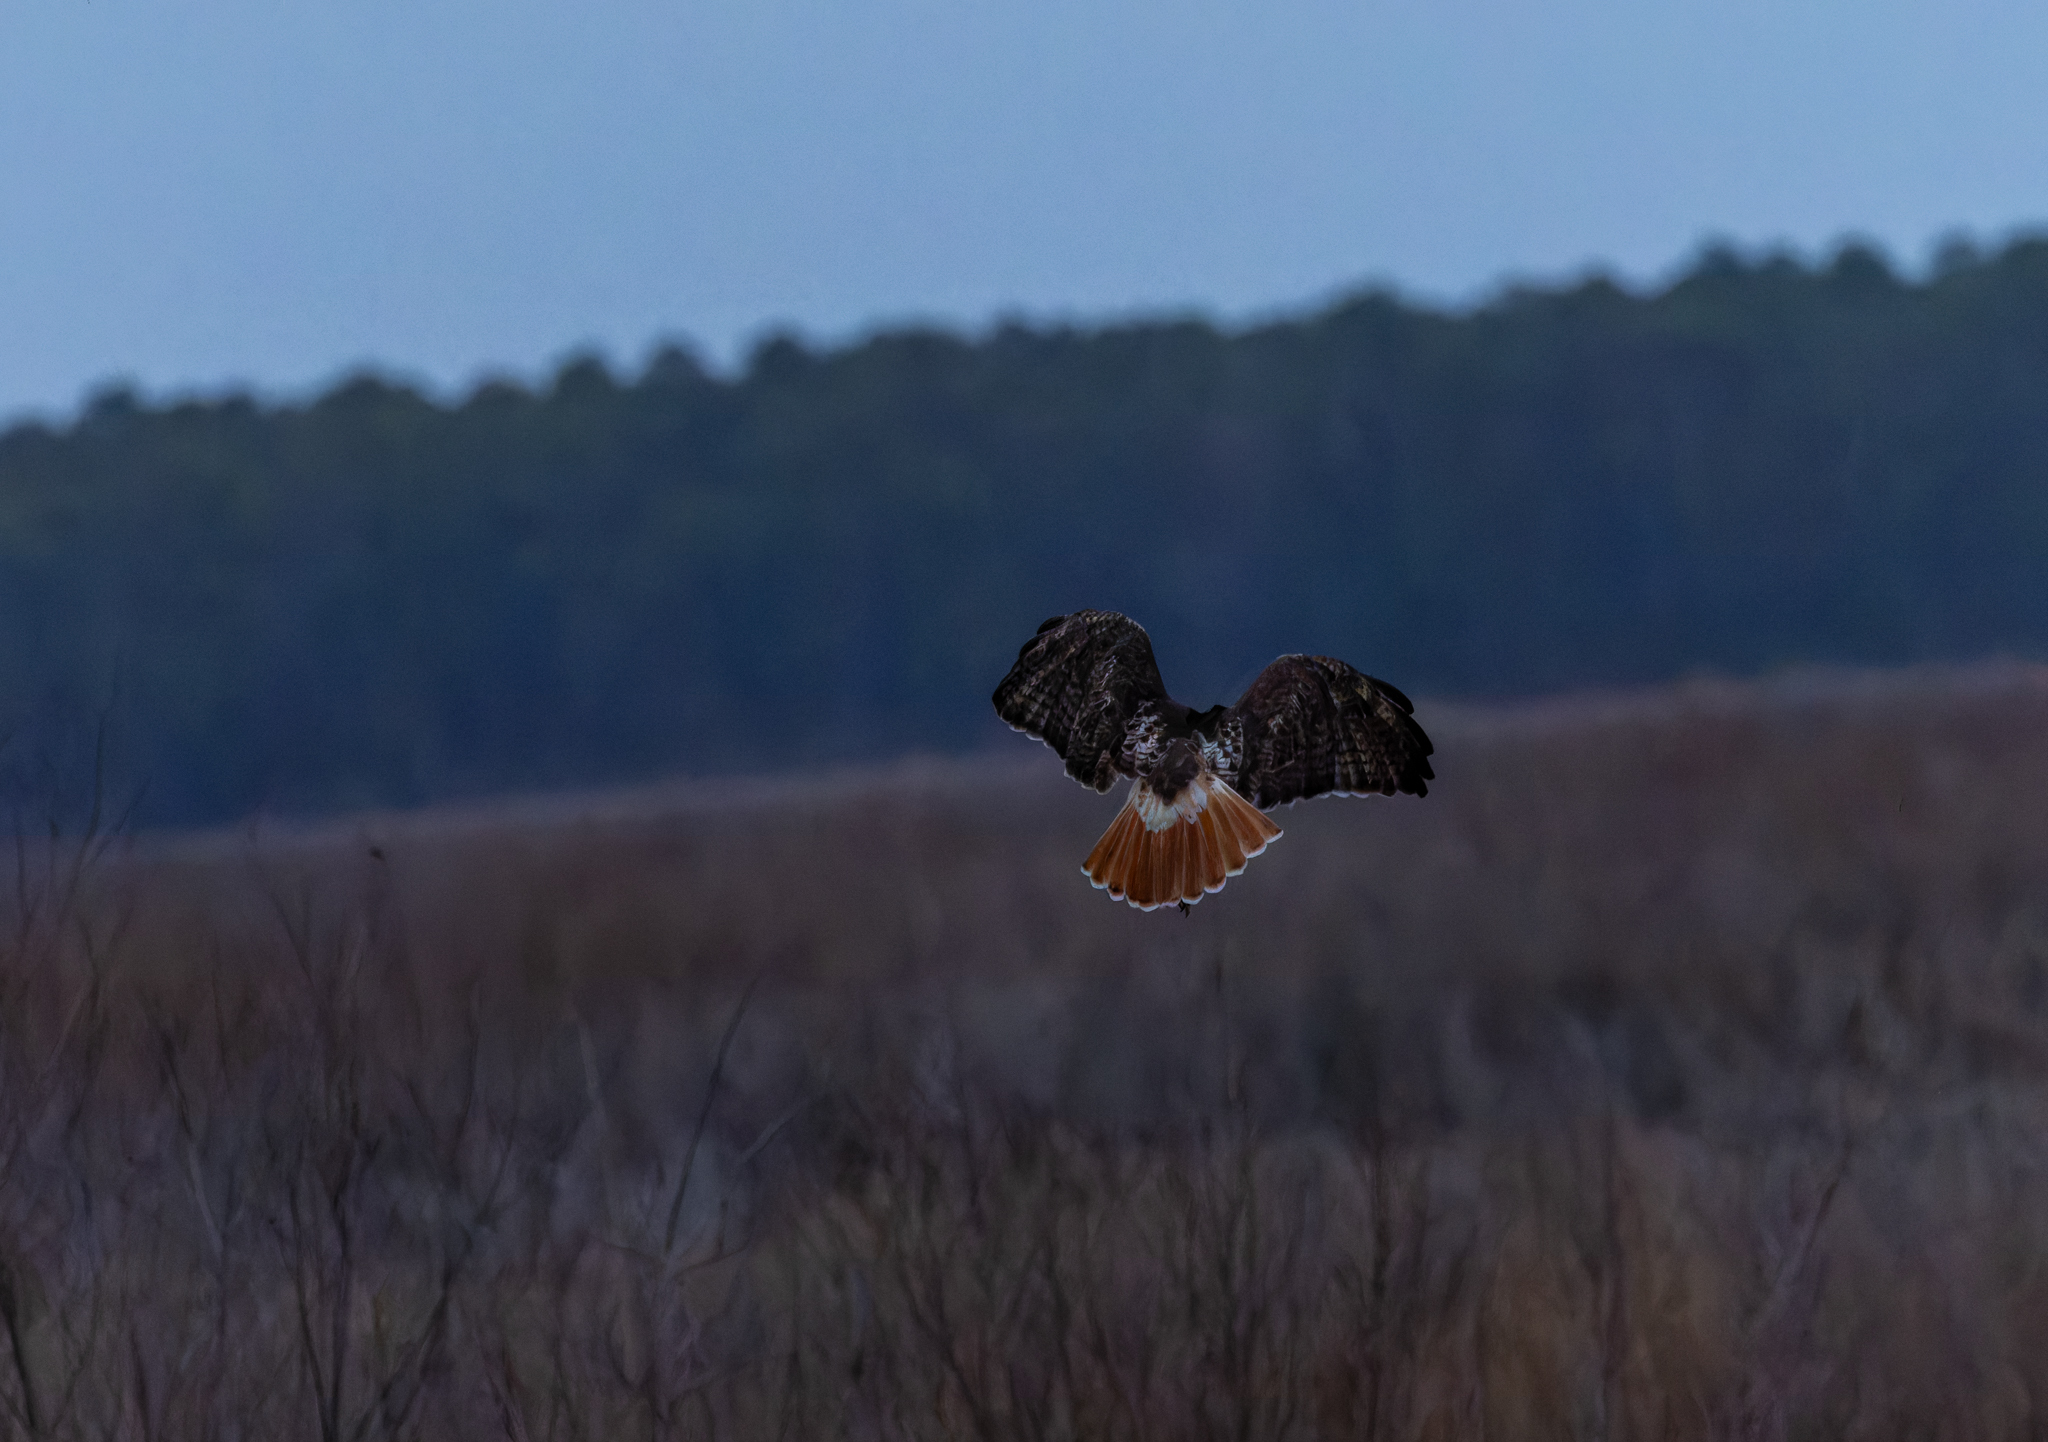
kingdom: Animalia
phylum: Chordata
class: Aves
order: Accipitriformes
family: Accipitridae
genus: Buteo
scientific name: Buteo jamaicensis
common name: Red-tailed hawk
